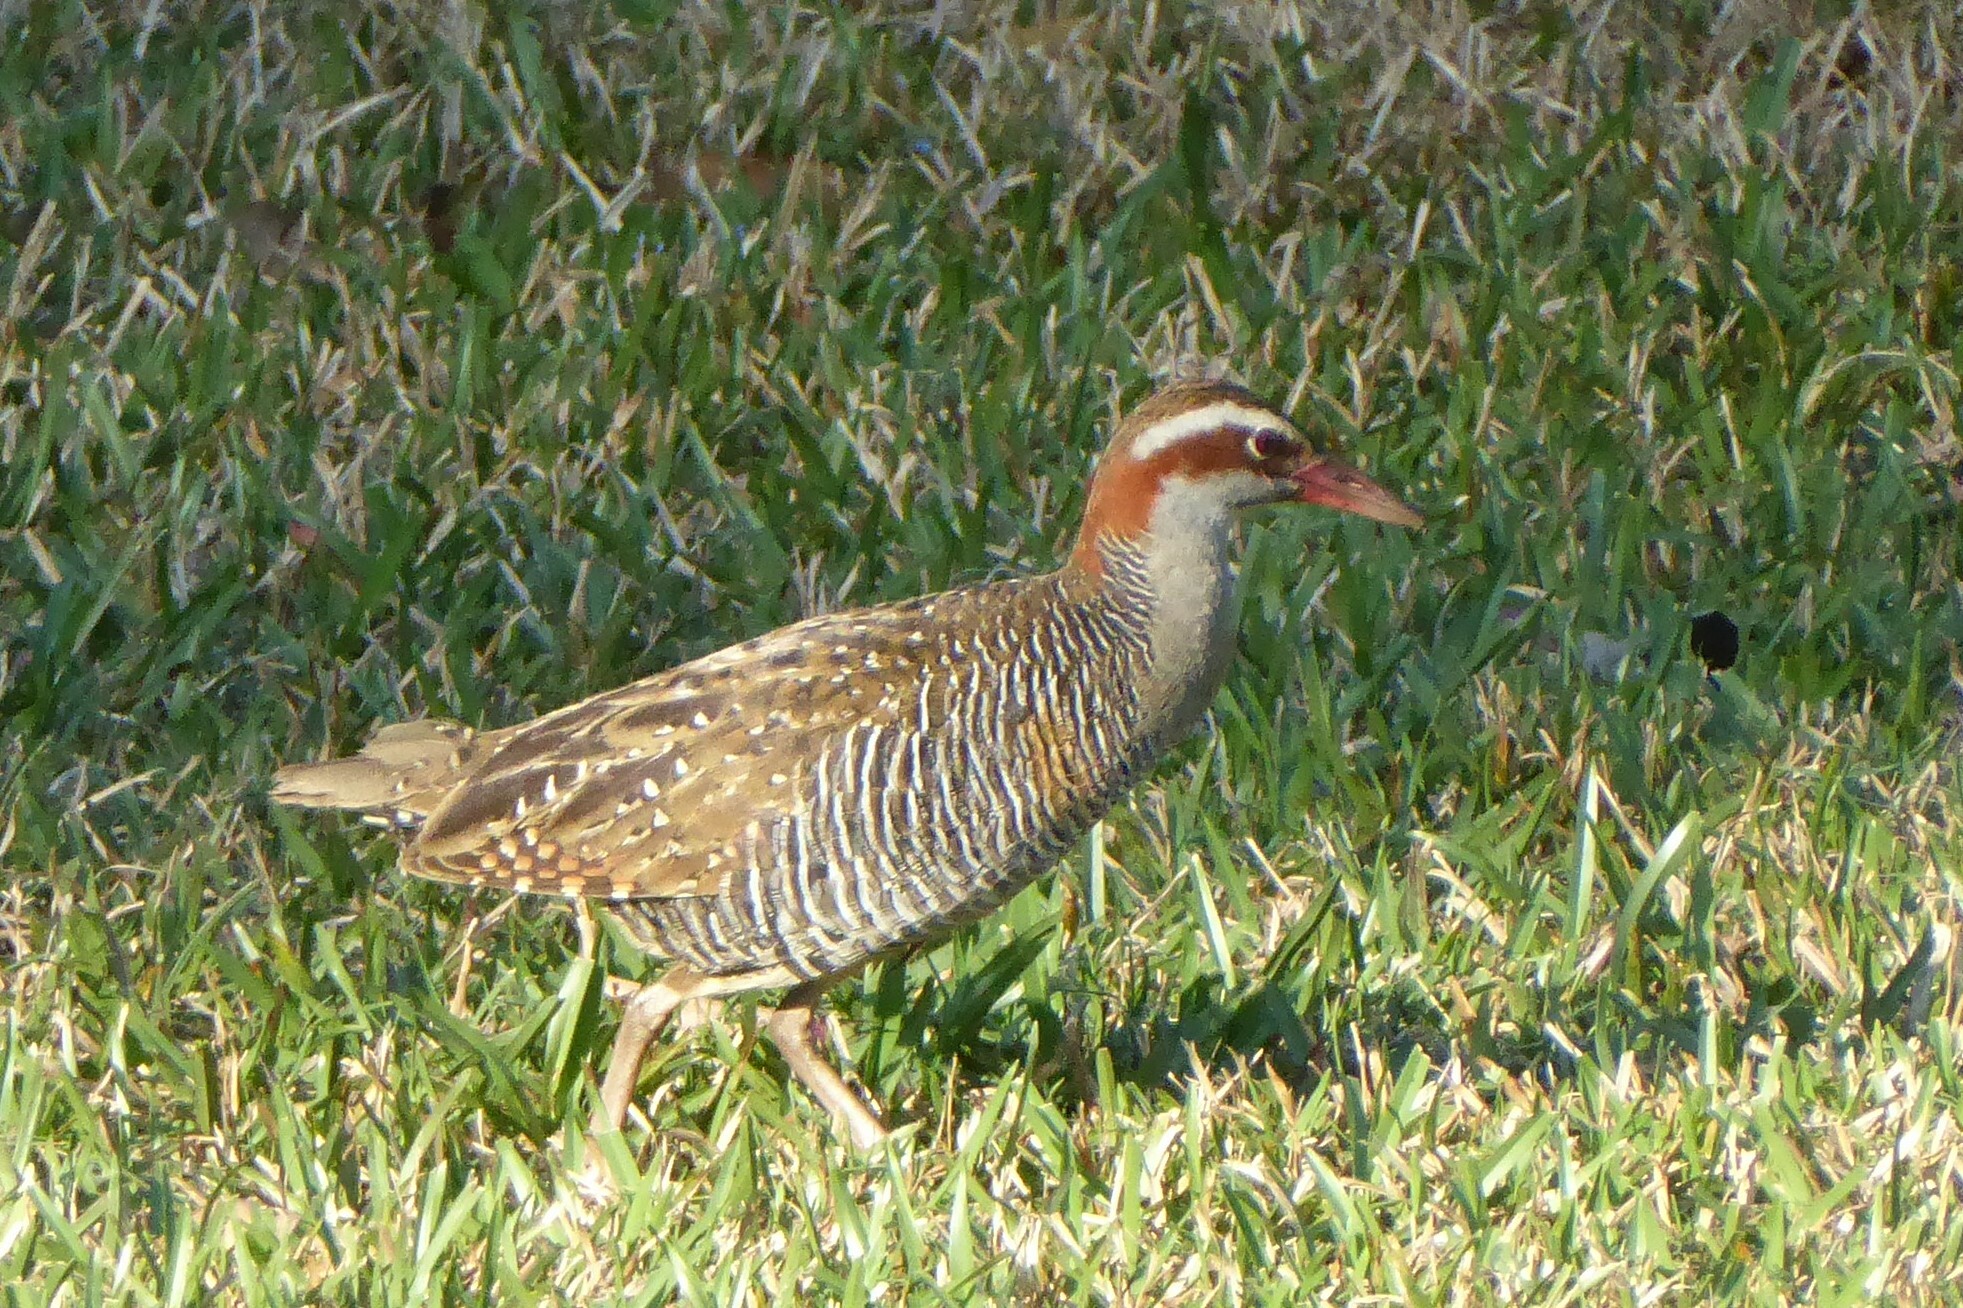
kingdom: Animalia
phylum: Chordata
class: Aves
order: Gruiformes
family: Rallidae
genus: Gallirallus
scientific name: Gallirallus philippensis
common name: Buff-banded rail
